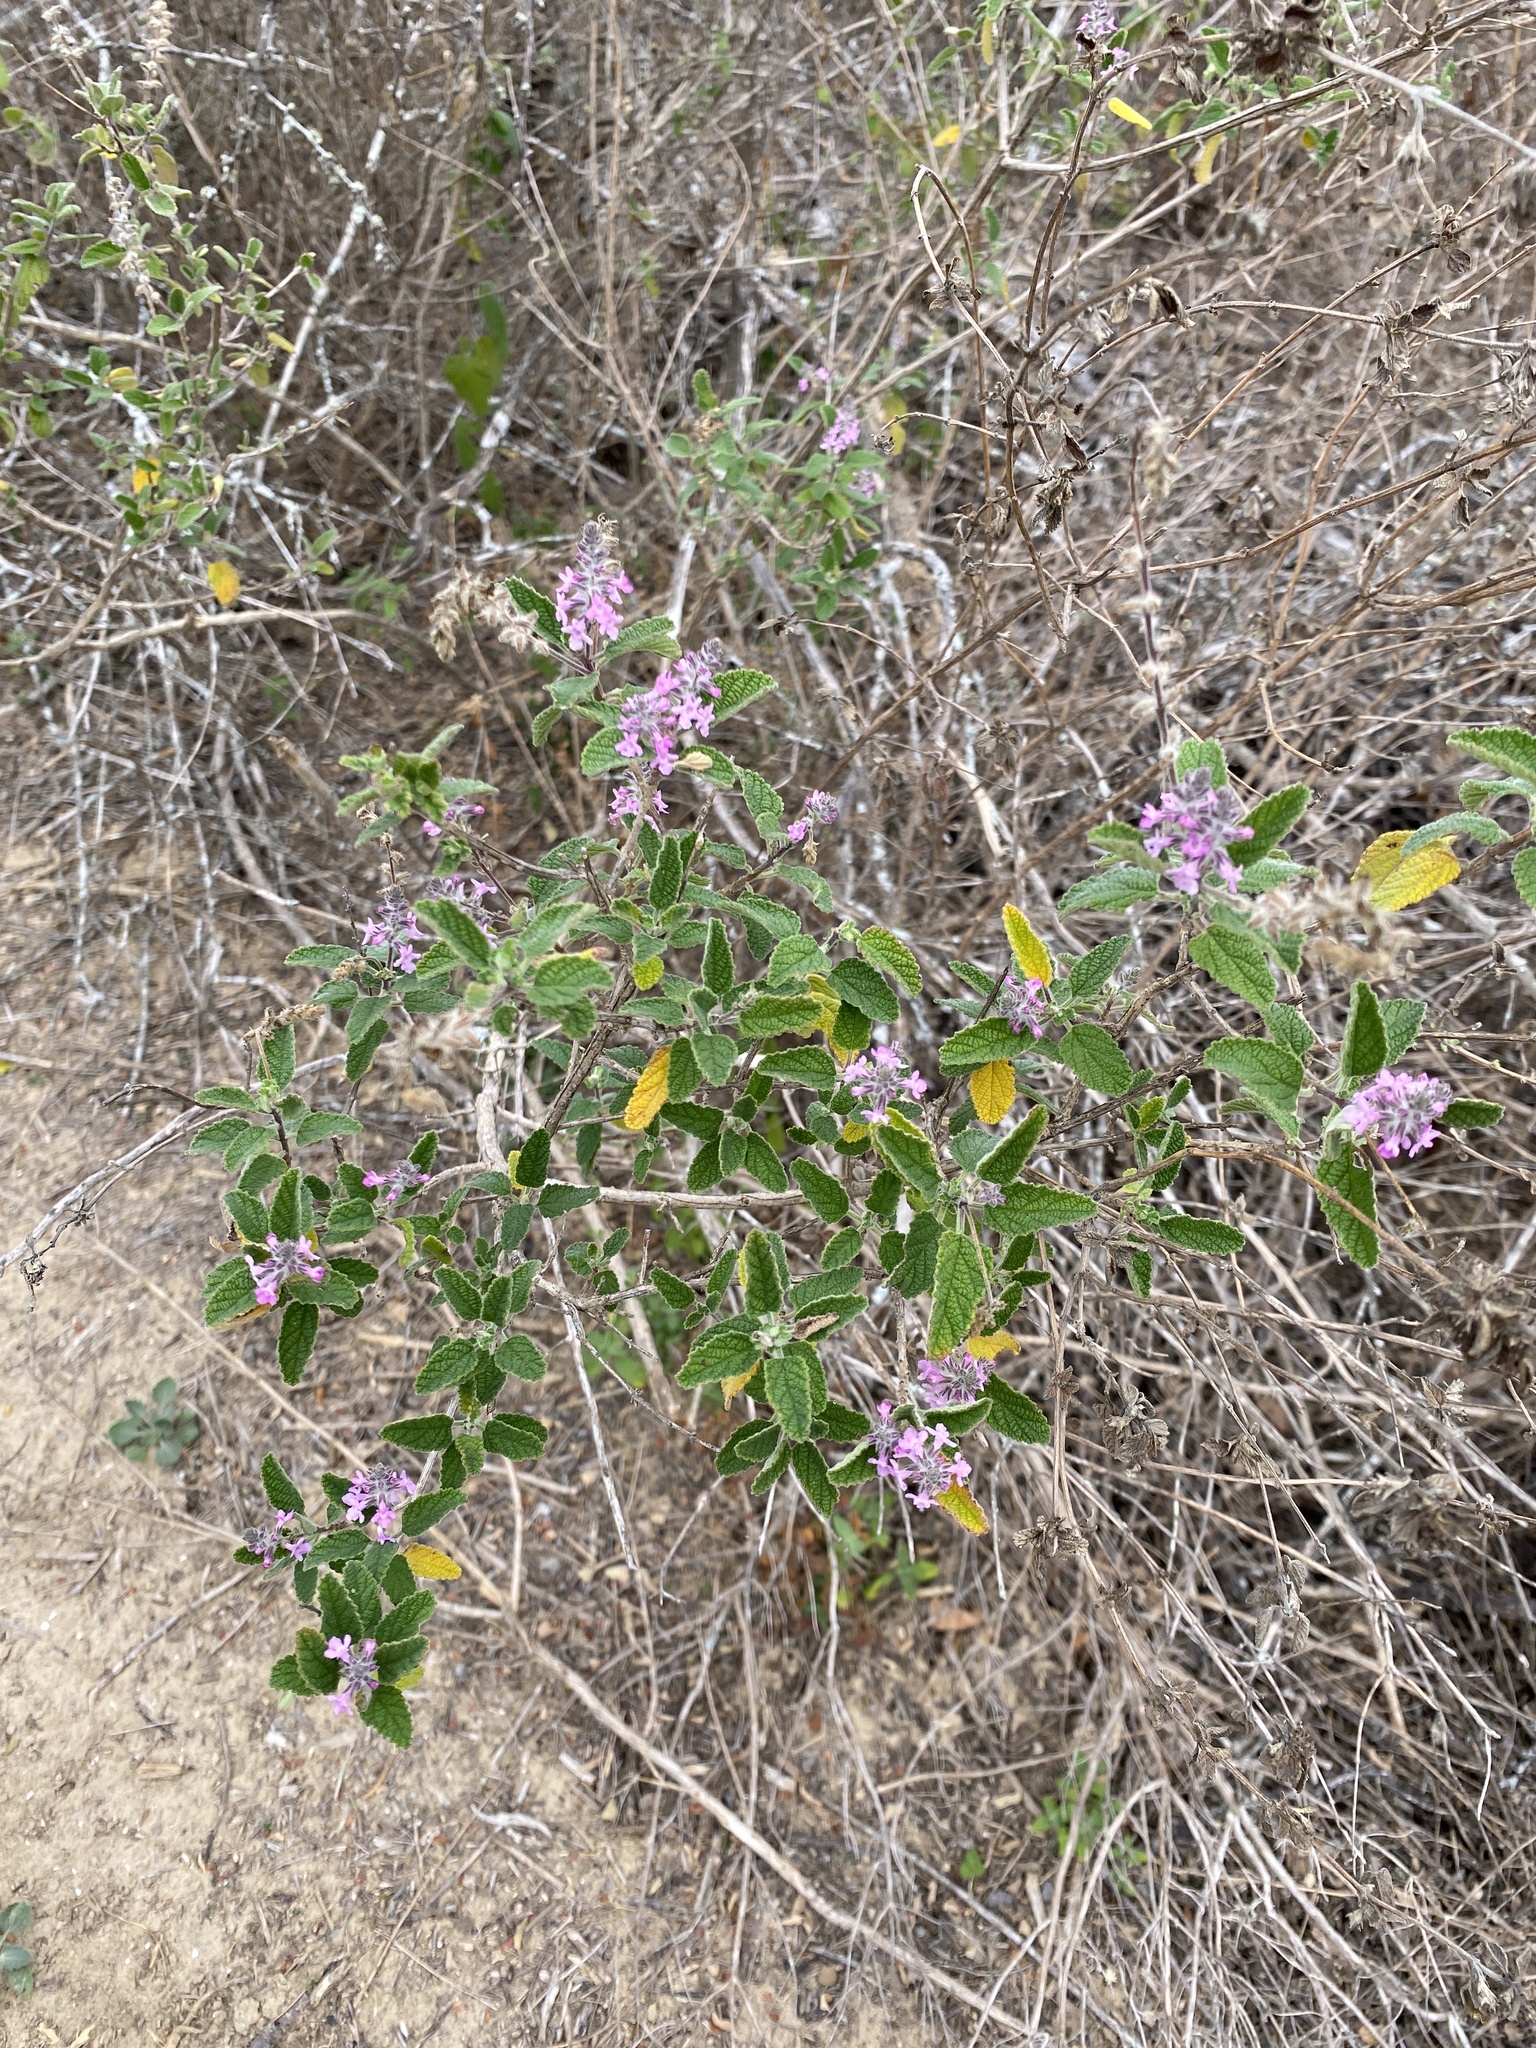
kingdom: Plantae
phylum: Tracheophyta
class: Magnoliopsida
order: Lamiales
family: Verbenaceae
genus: Aloysia
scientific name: Aloysia macrostachya
